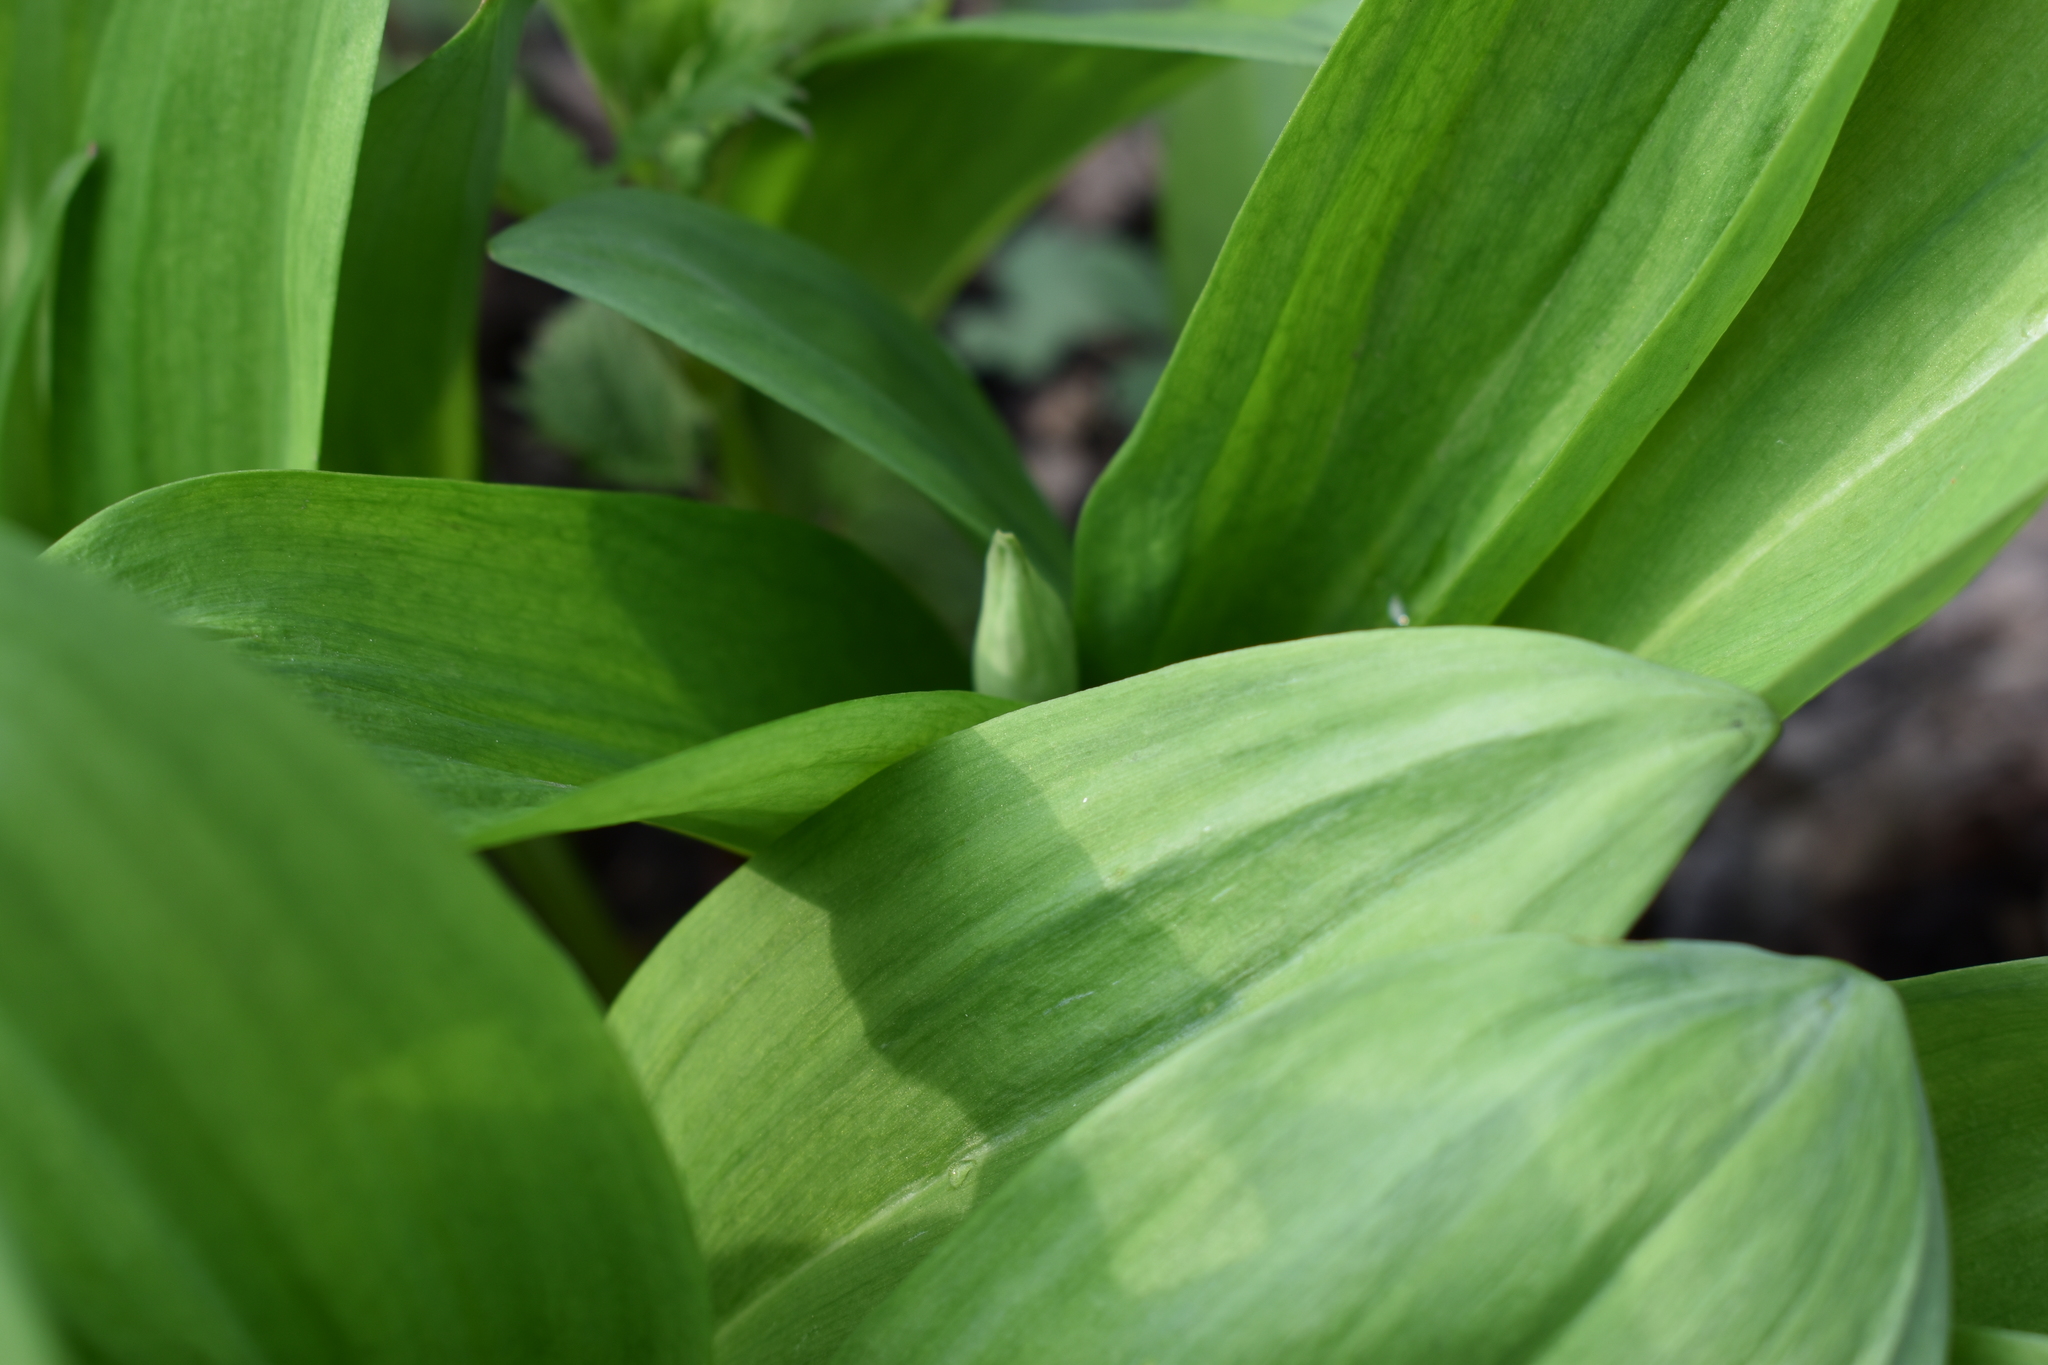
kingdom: Plantae
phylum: Tracheophyta
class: Liliopsida
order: Asparagales
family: Amaryllidaceae
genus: Allium
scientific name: Allium ochotense
